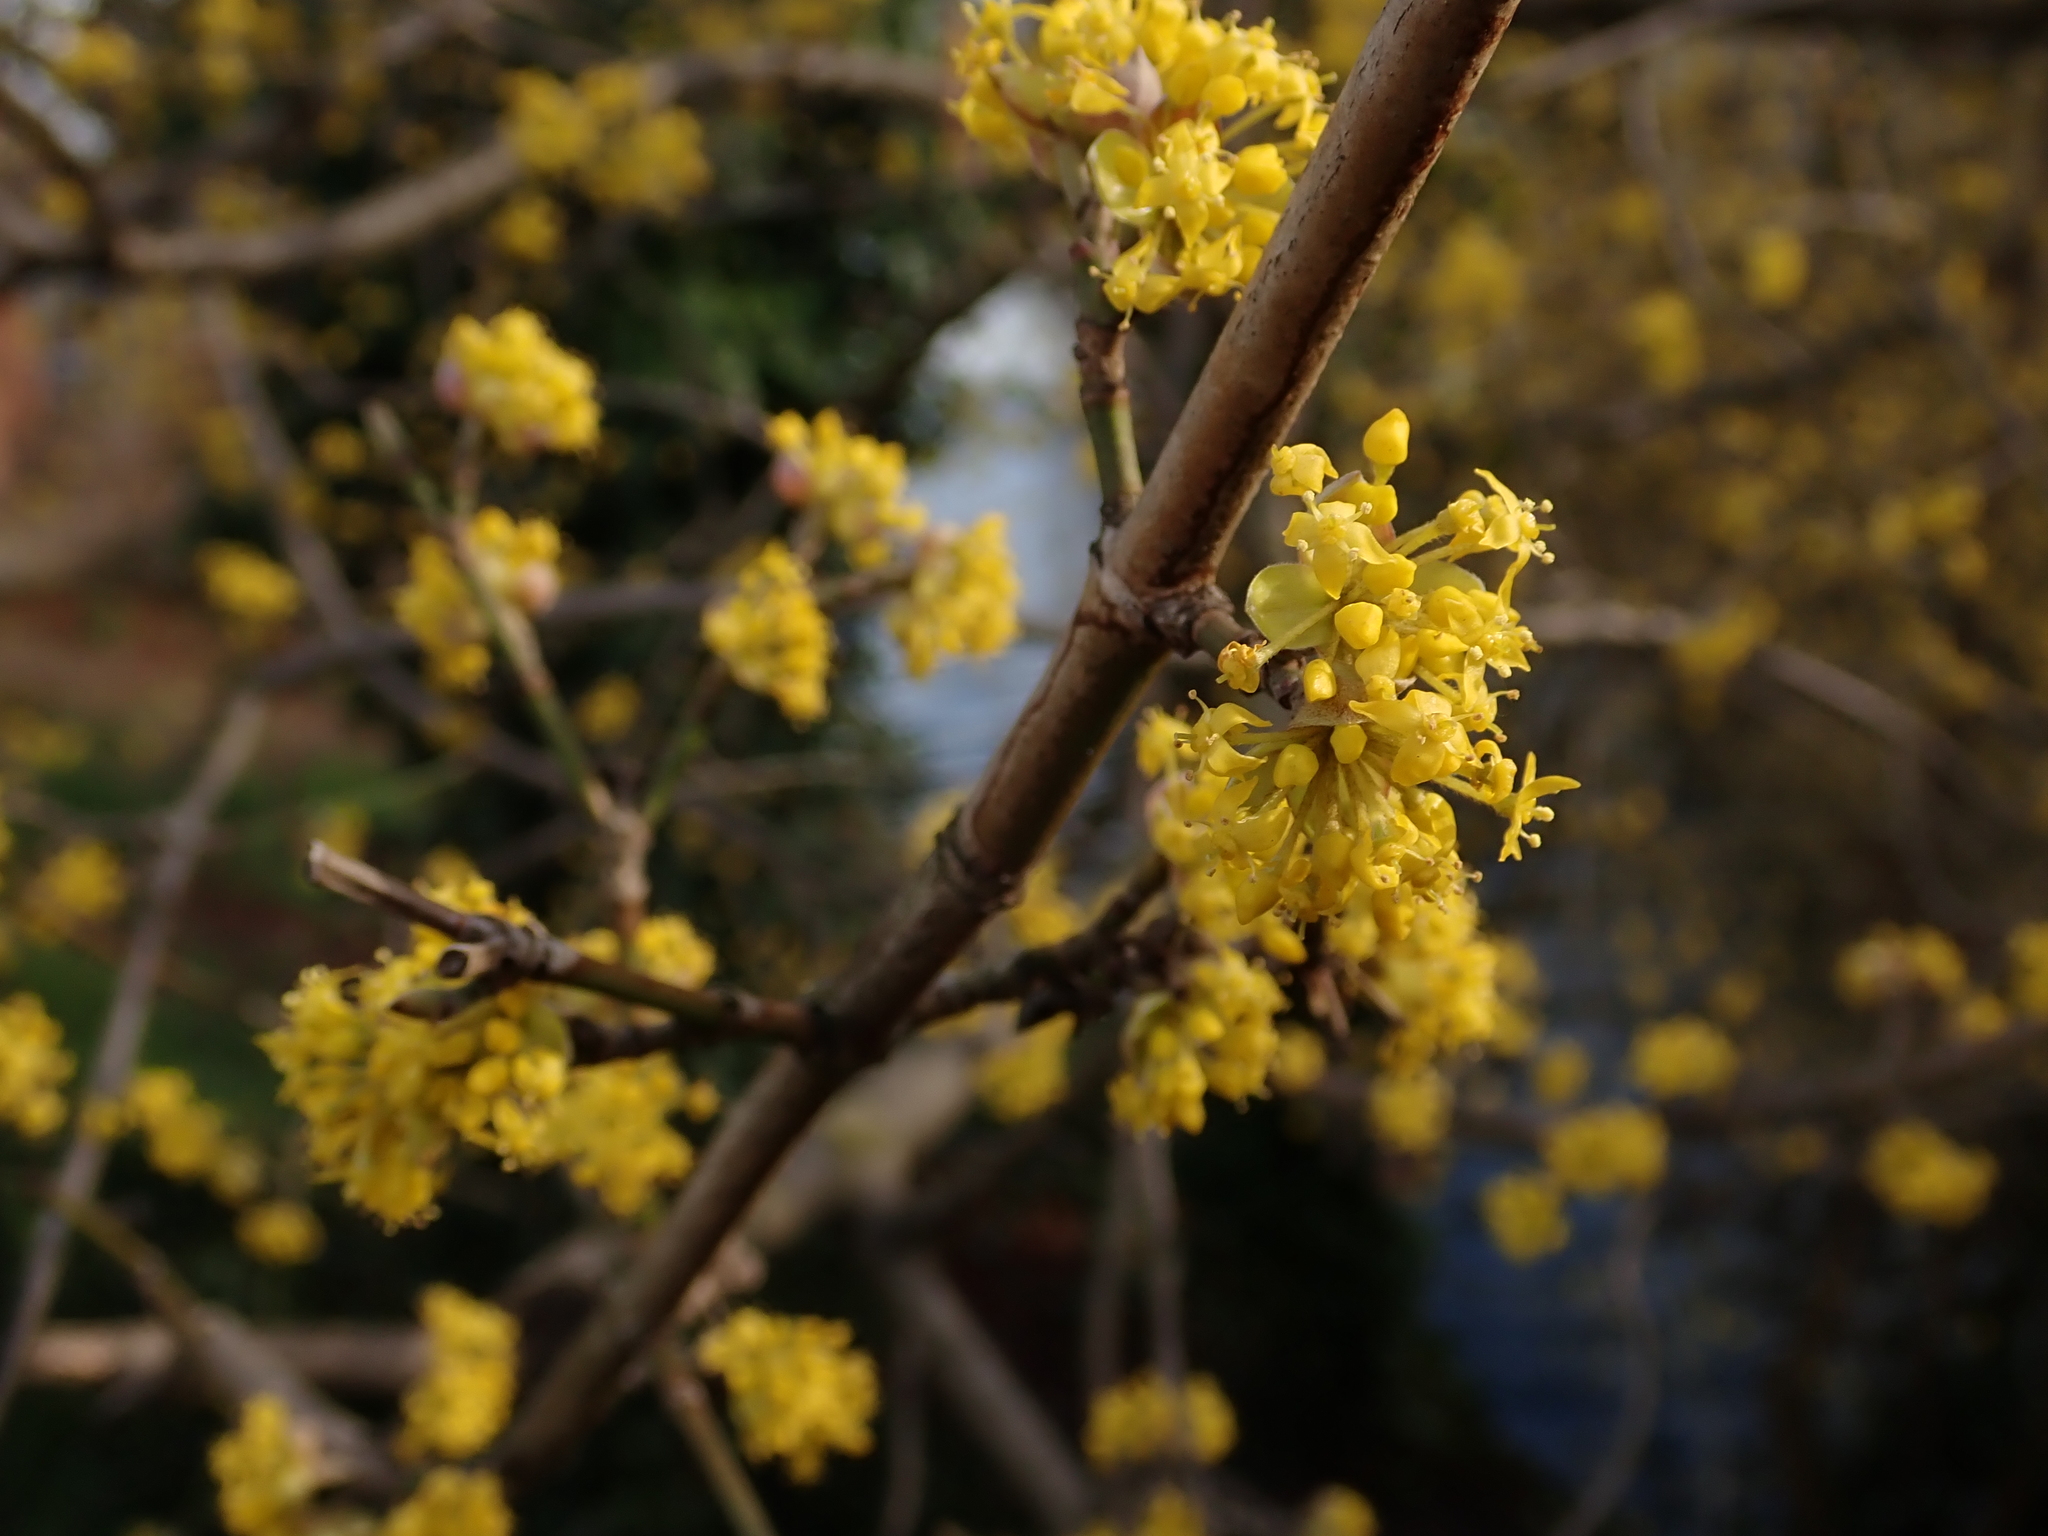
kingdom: Plantae
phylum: Tracheophyta
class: Magnoliopsida
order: Cornales
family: Cornaceae
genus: Cornus
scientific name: Cornus mas
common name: Cornelian-cherry
